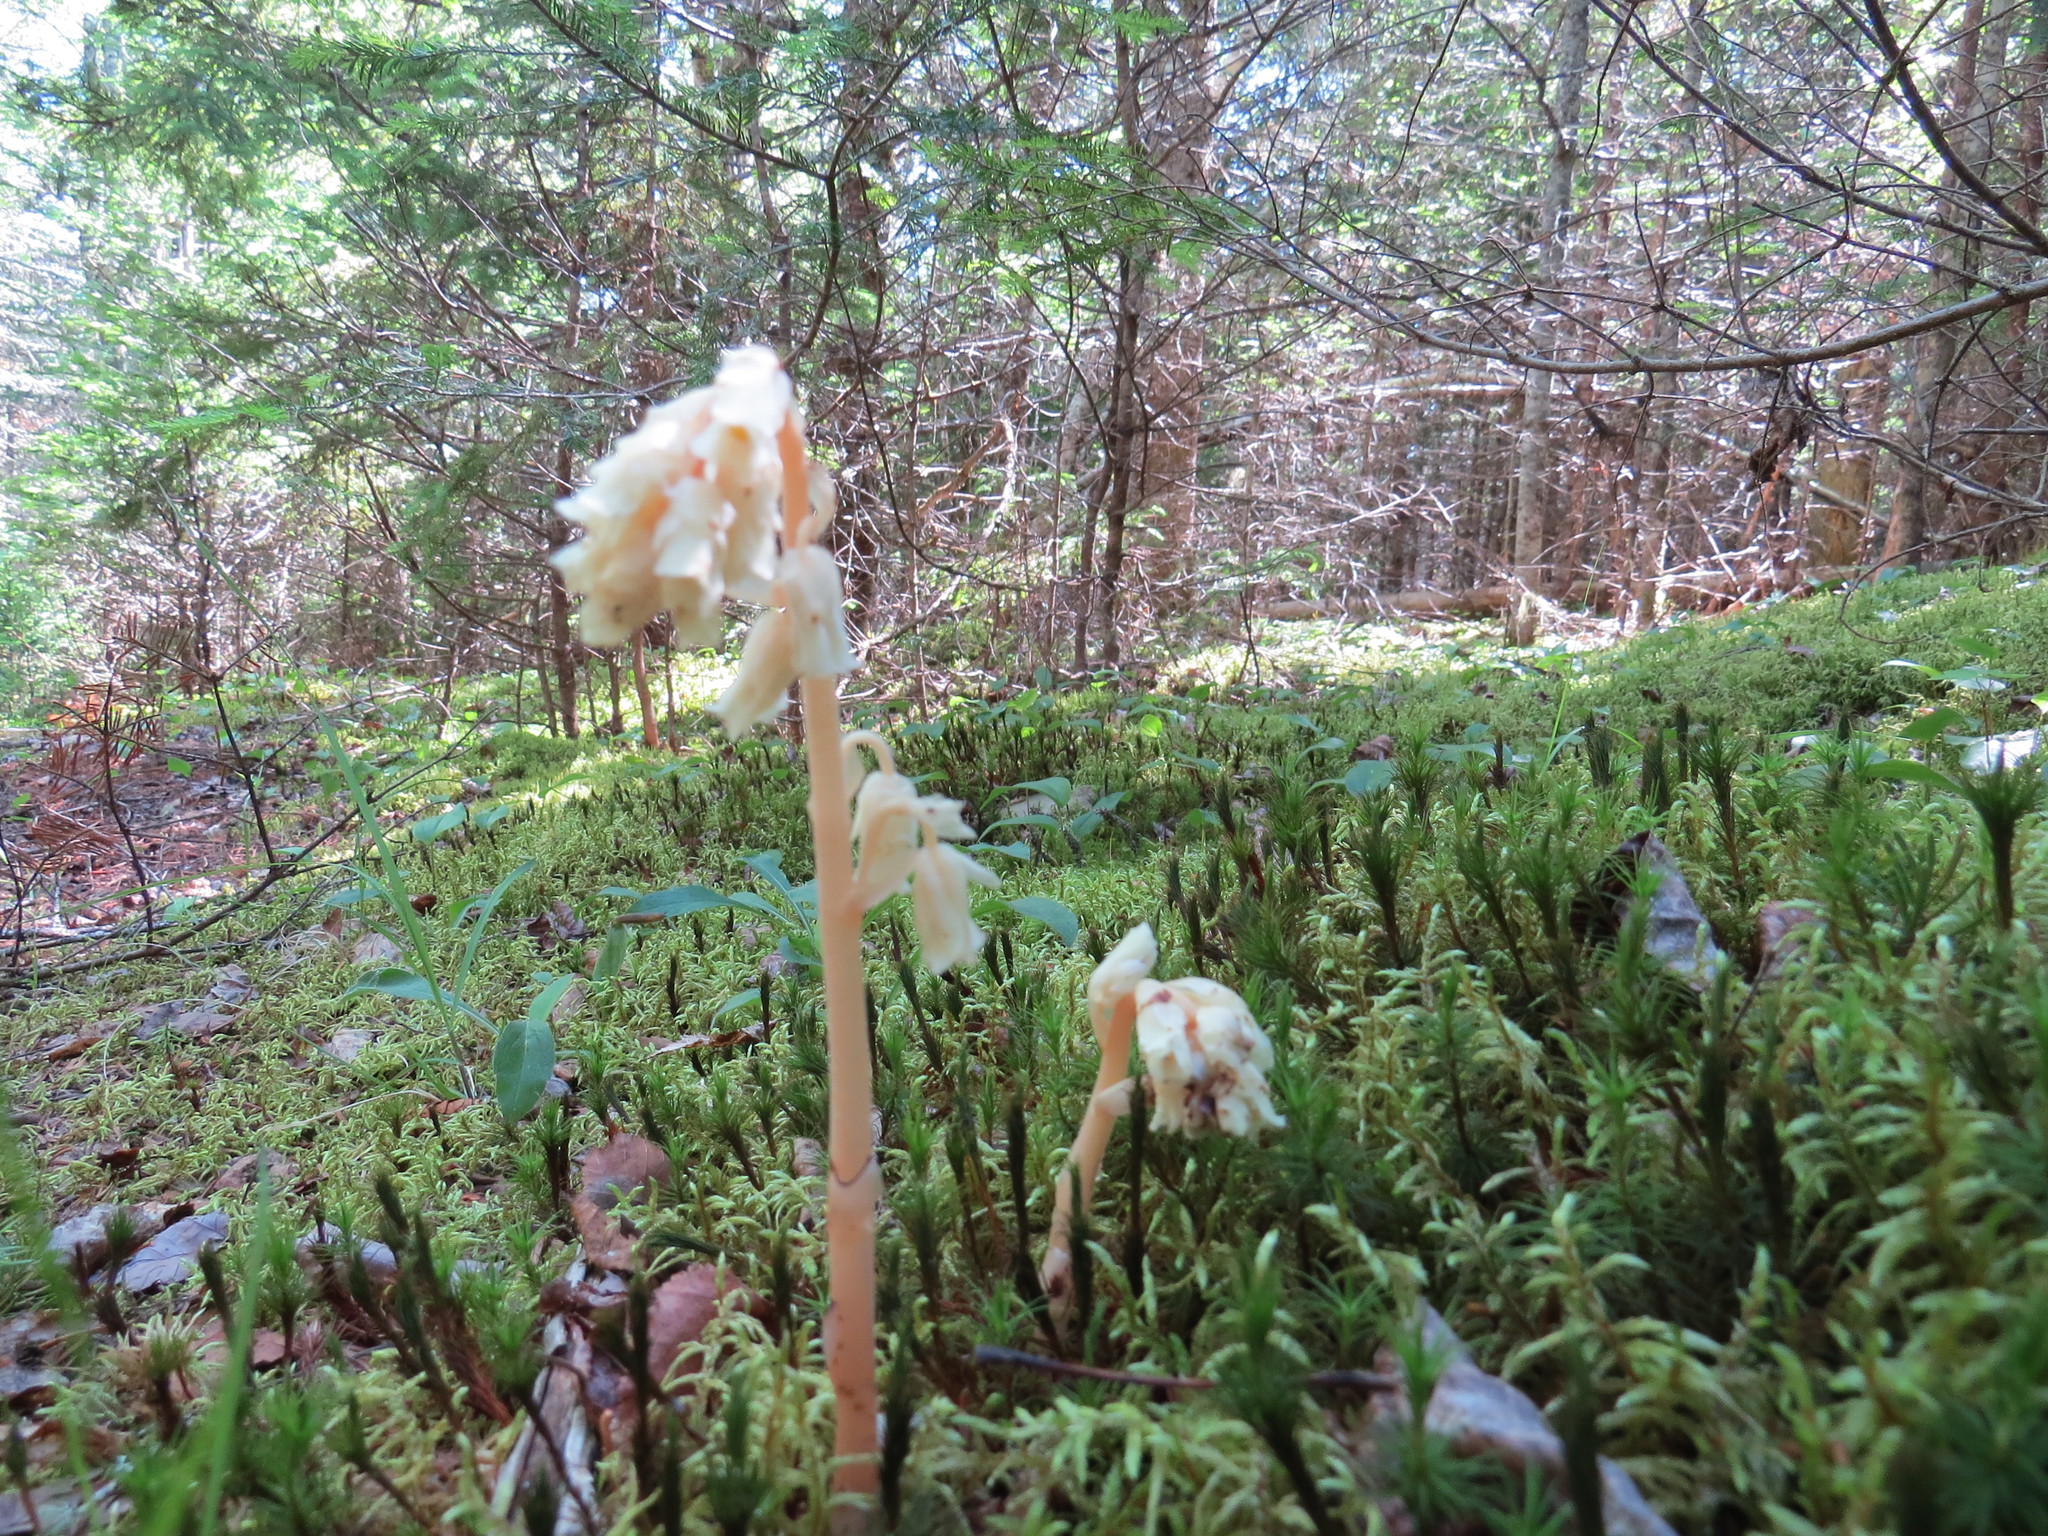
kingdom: Plantae
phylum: Tracheophyta
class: Magnoliopsida
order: Ericales
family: Ericaceae
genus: Hypopitys
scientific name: Hypopitys monotropa
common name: Yellow bird's-nest
